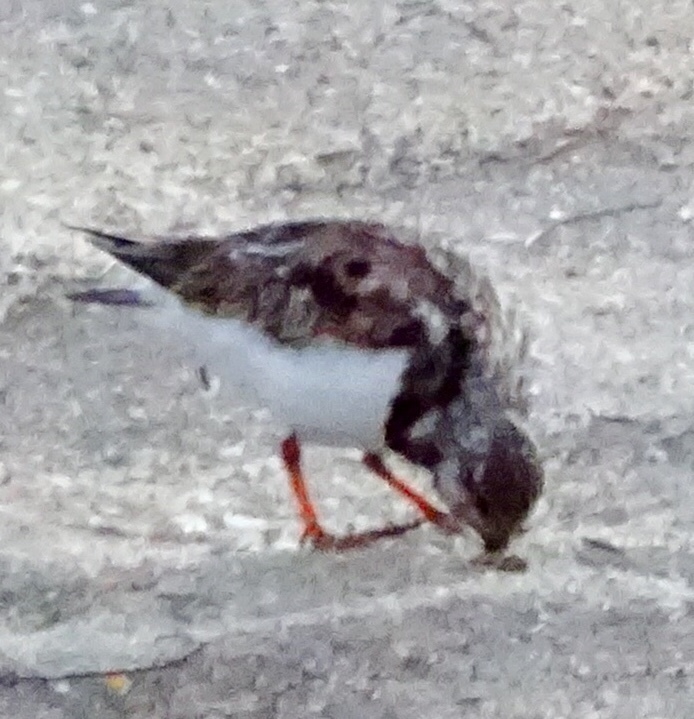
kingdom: Animalia
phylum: Chordata
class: Aves
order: Charadriiformes
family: Scolopacidae
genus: Arenaria
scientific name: Arenaria interpres
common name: Ruddy turnstone
